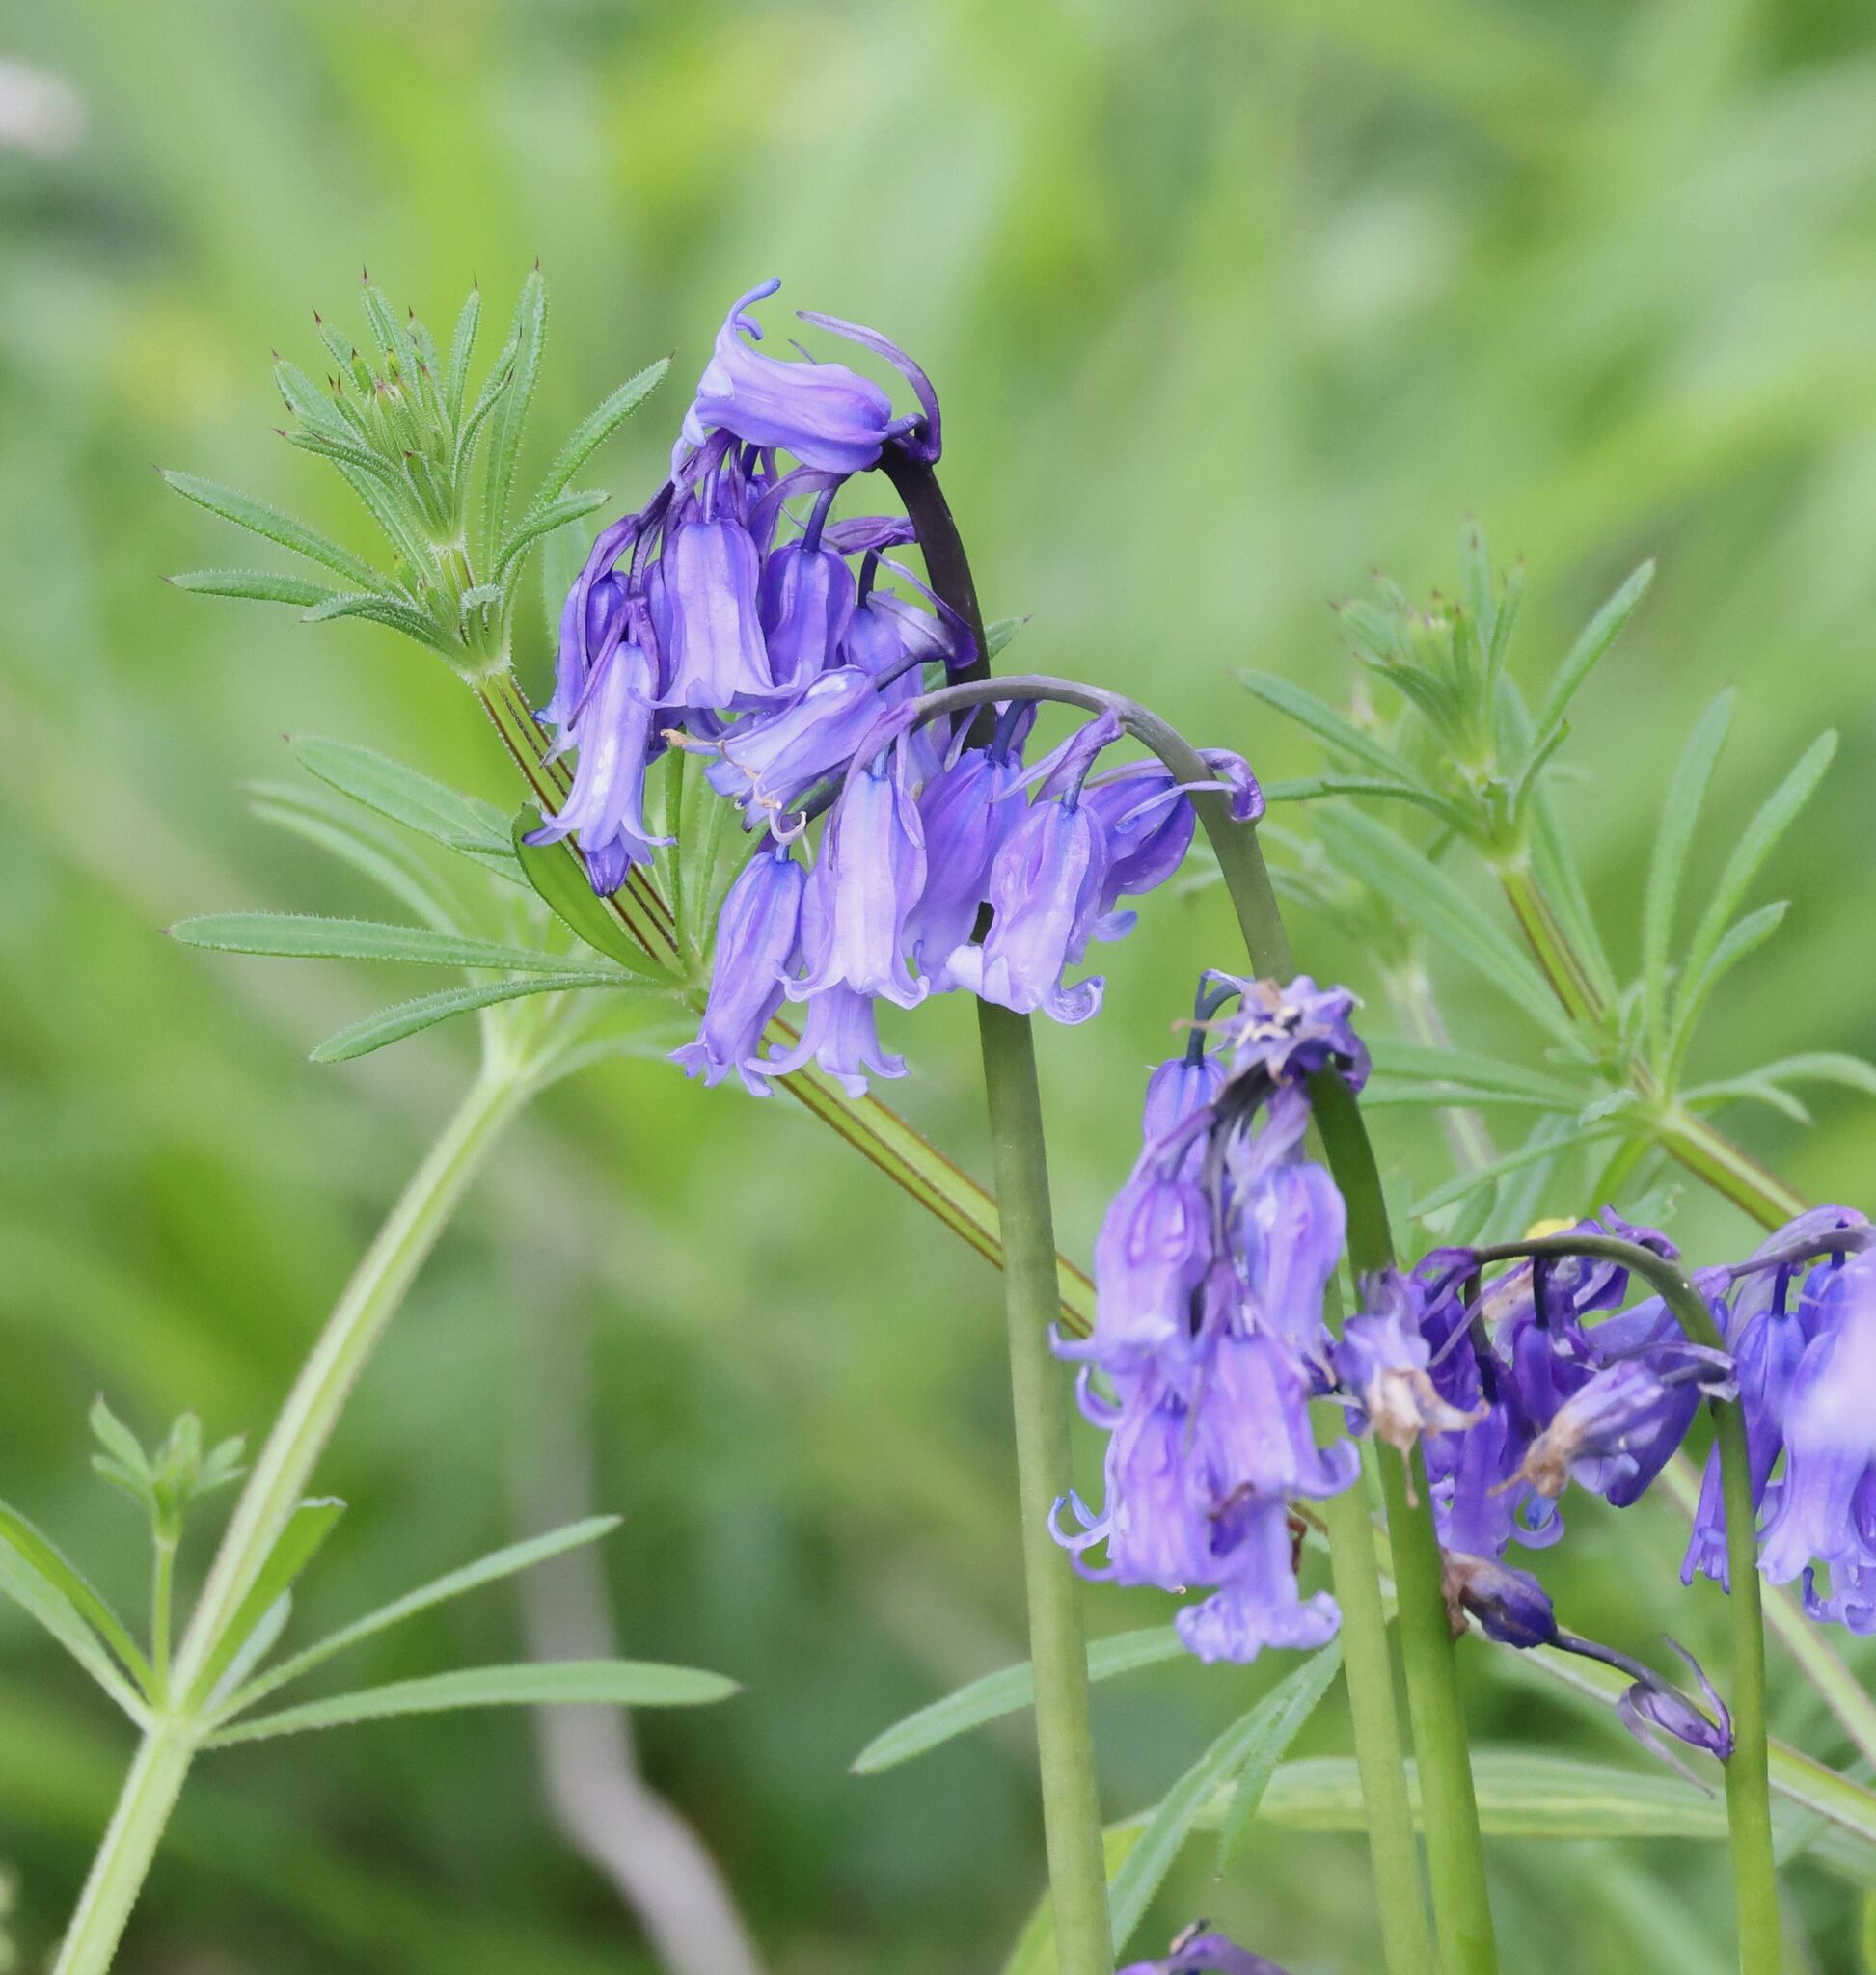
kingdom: Plantae
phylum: Tracheophyta
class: Liliopsida
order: Asparagales
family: Asparagaceae
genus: Hyacinthoides
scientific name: Hyacinthoides non-scripta
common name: Bluebell
